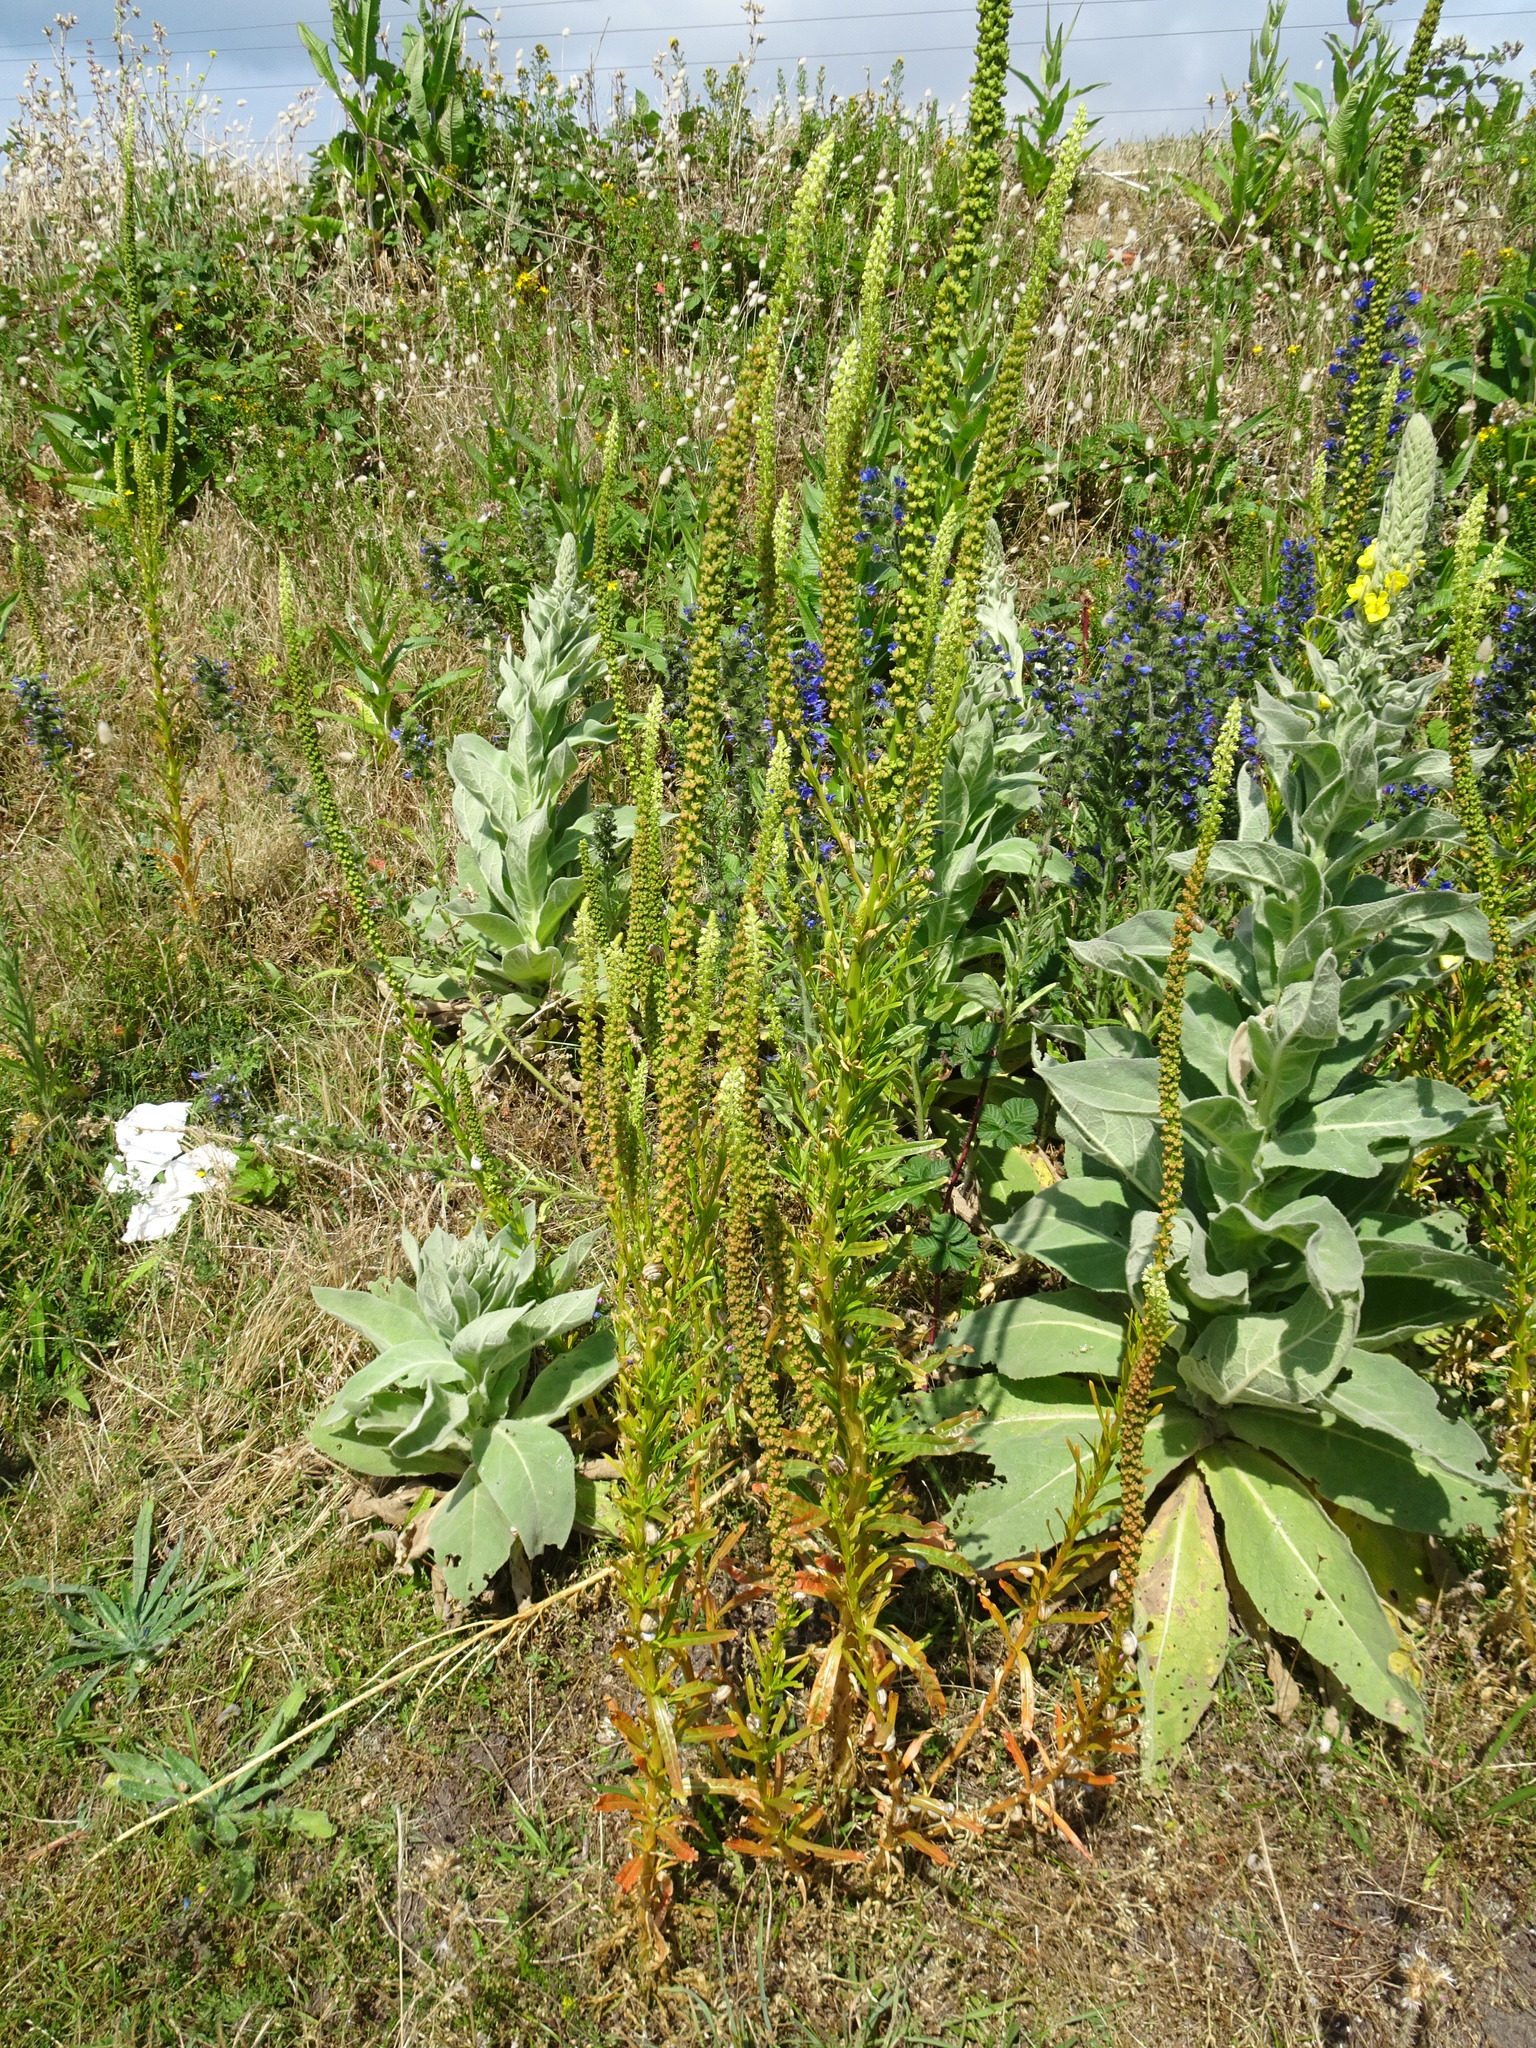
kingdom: Plantae
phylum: Tracheophyta
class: Magnoliopsida
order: Brassicales
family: Resedaceae
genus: Reseda
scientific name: Reseda luteola
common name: Weld
